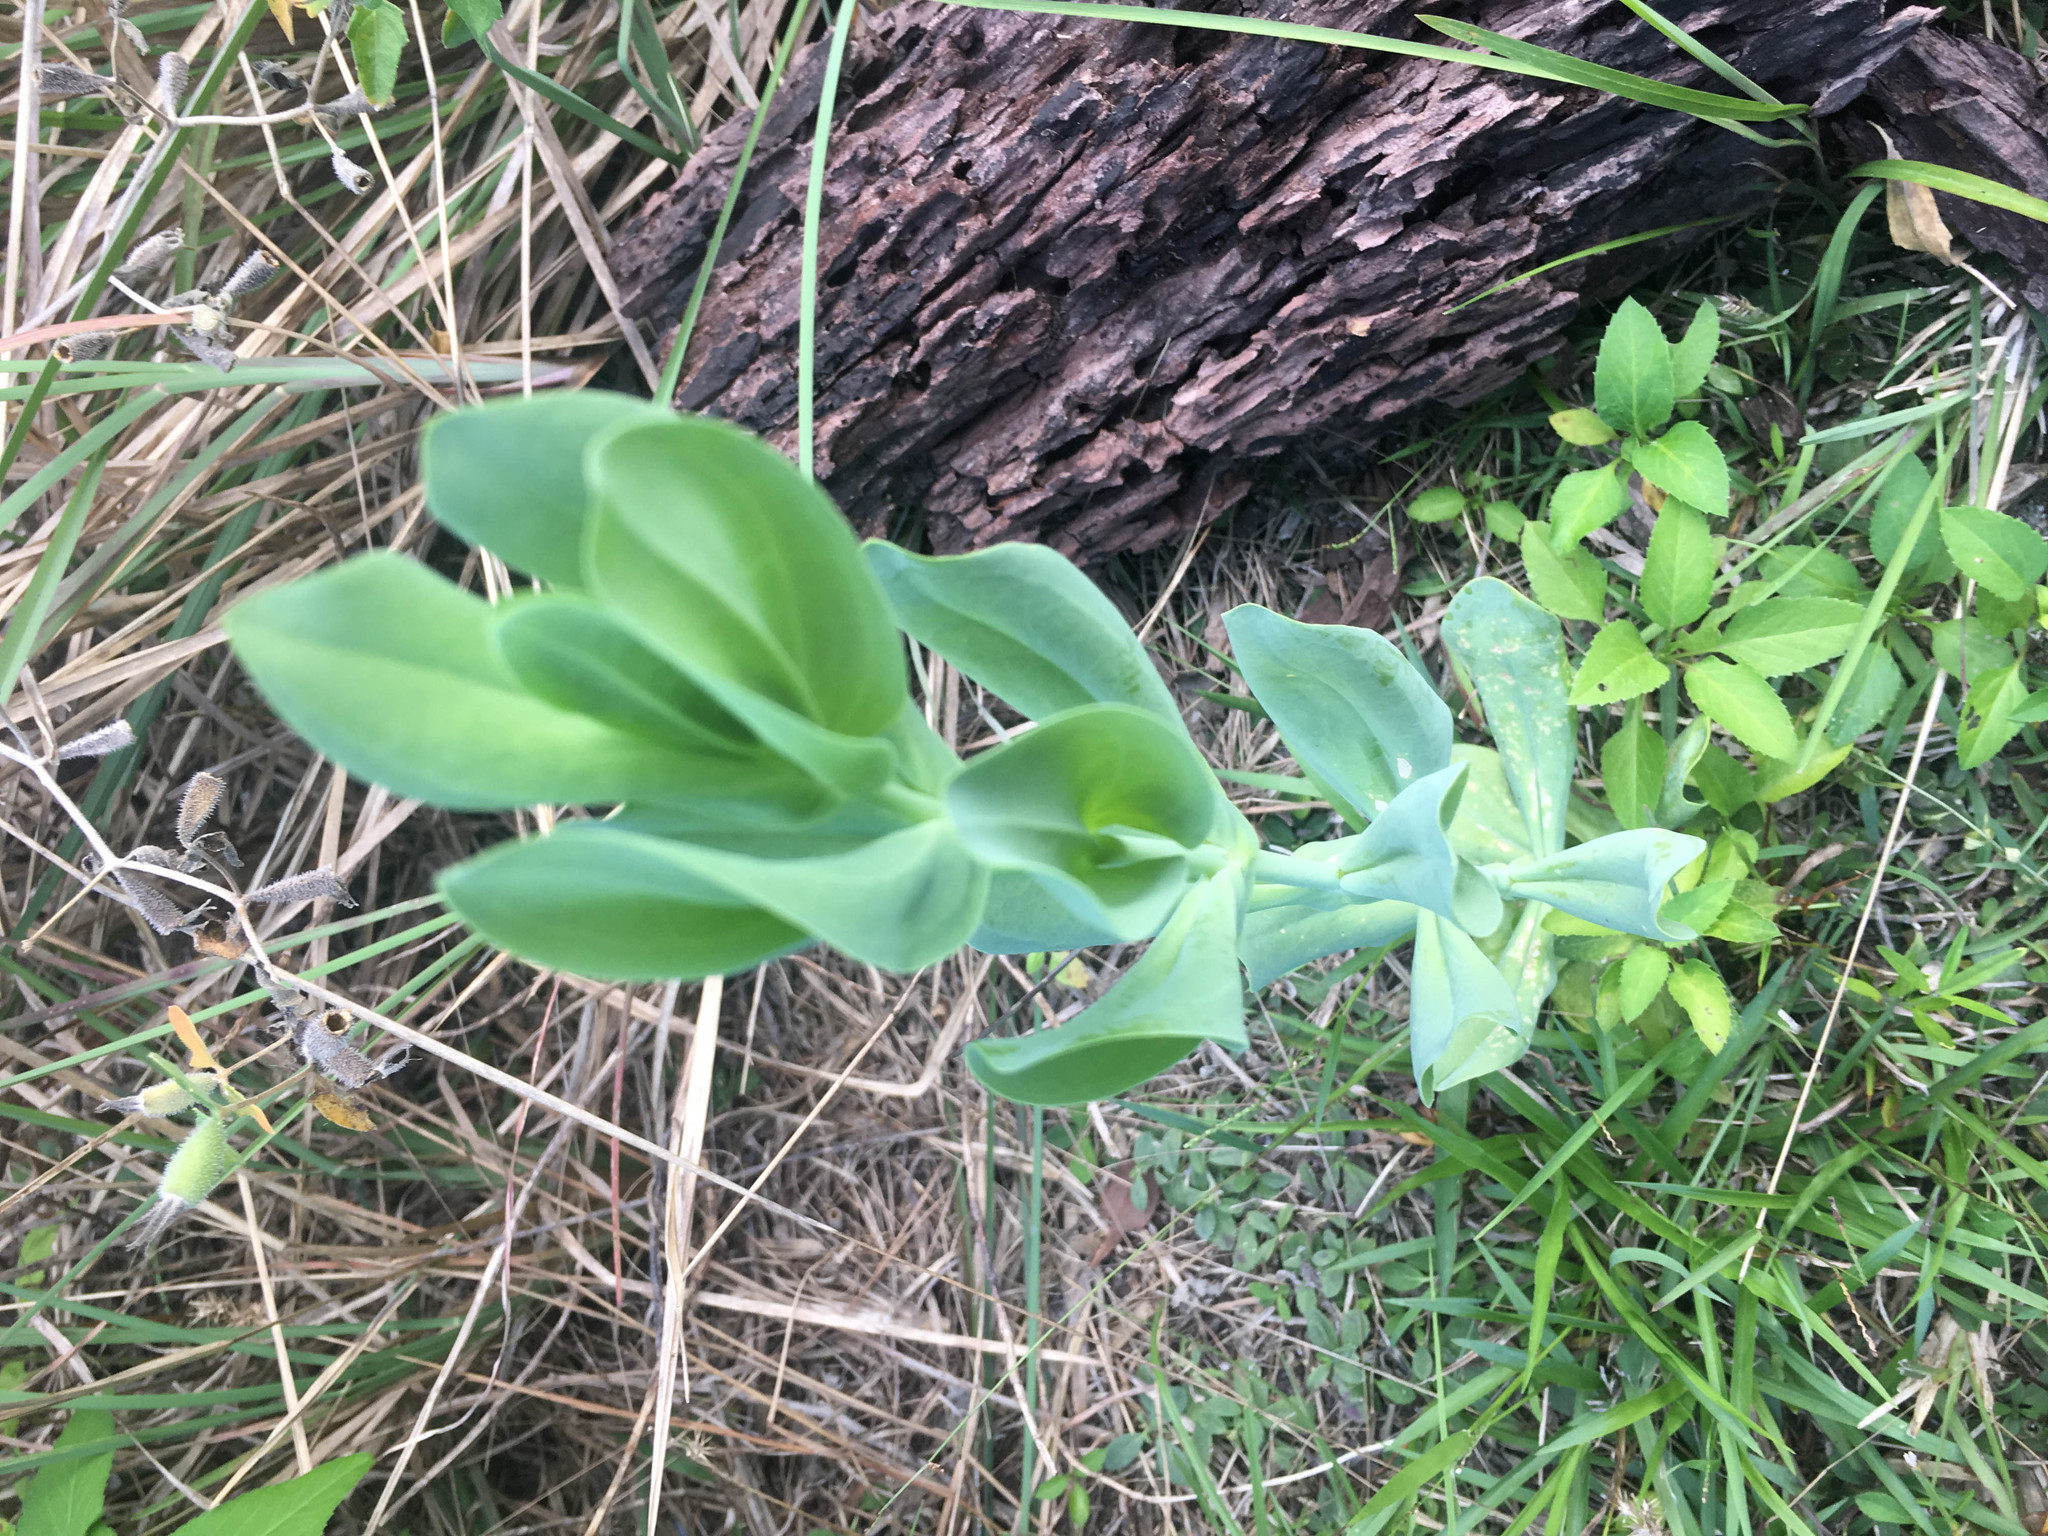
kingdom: Plantae
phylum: Tracheophyta
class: Magnoliopsida
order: Gentianales
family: Gentianaceae
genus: Eustoma
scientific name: Eustoma exaltatum
